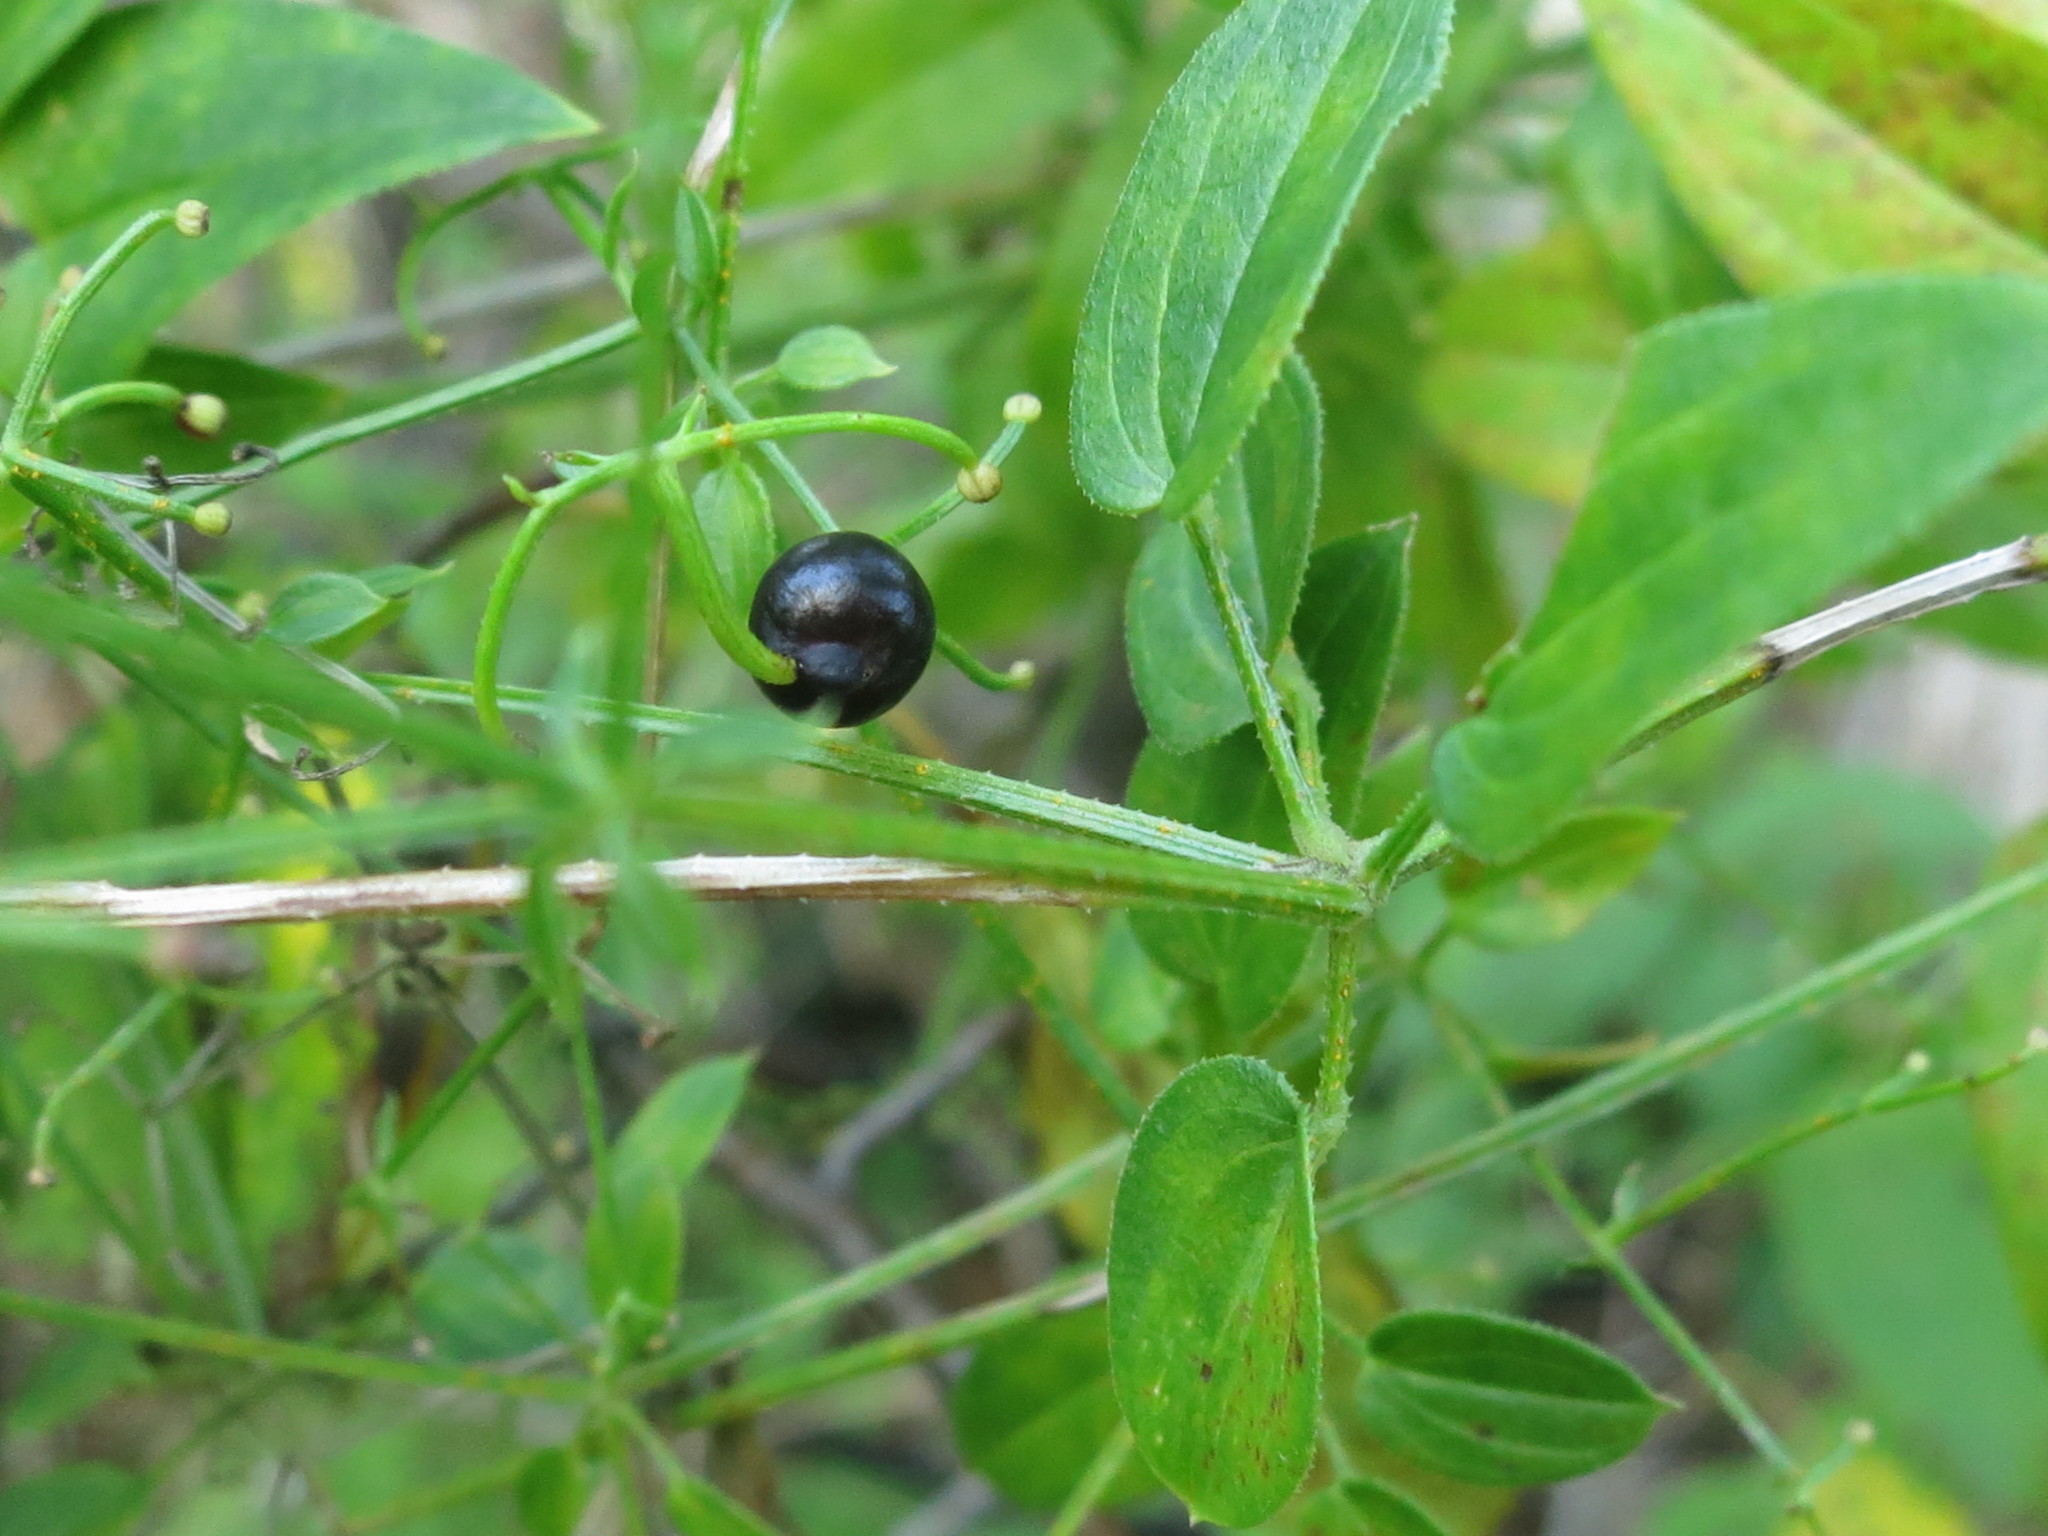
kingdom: Plantae
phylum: Tracheophyta
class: Magnoliopsida
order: Gentianales
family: Rubiaceae
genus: Rubia
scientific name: Rubia cordifolia
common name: Indian madder
